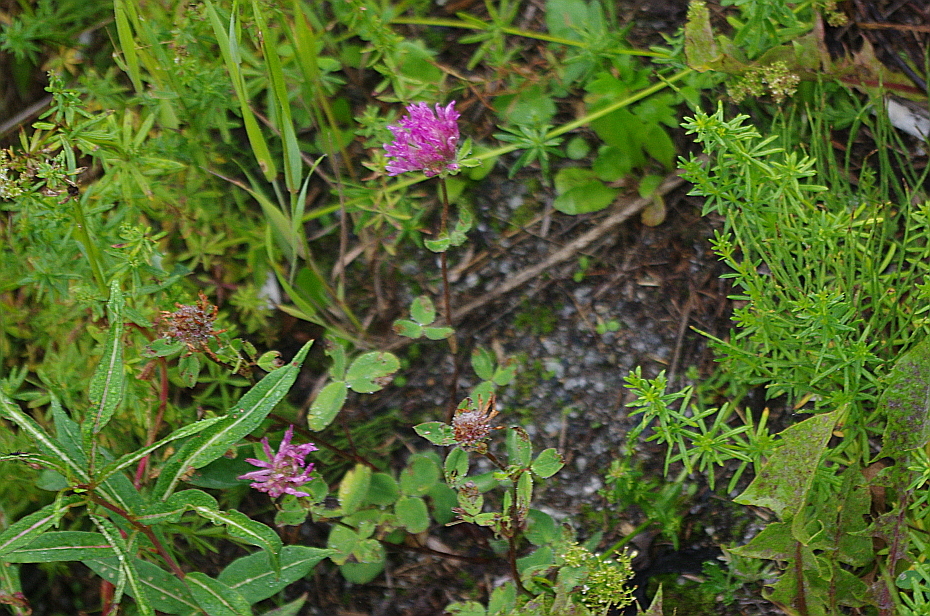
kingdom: Plantae
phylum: Tracheophyta
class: Magnoliopsida
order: Fabales
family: Fabaceae
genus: Trifolium
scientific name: Trifolium pratense
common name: Red clover
